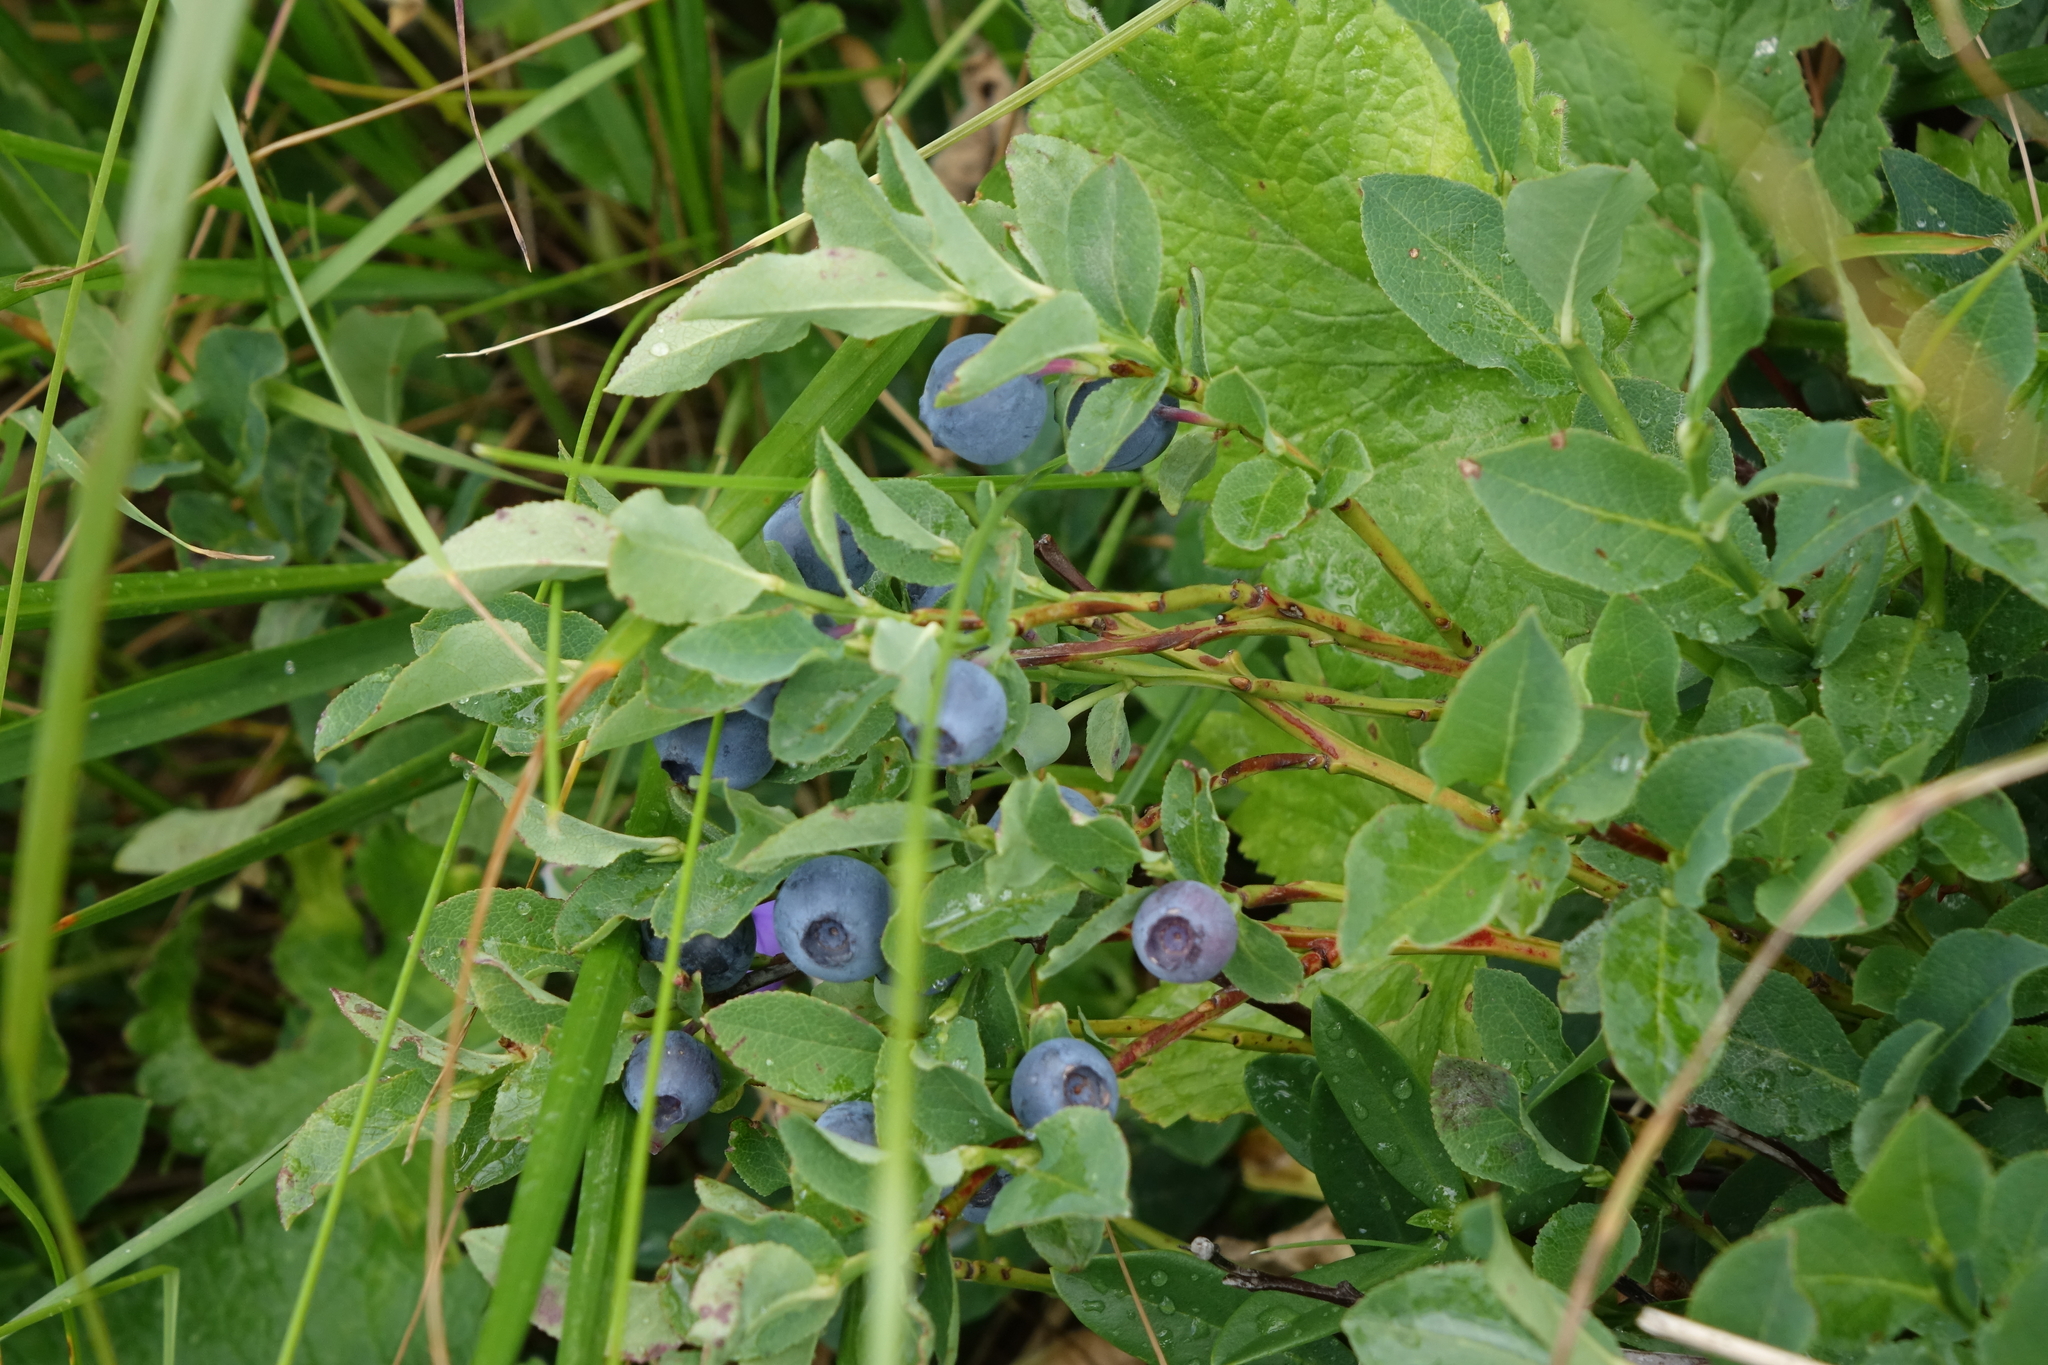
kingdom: Plantae
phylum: Tracheophyta
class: Magnoliopsida
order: Ericales
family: Ericaceae
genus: Vaccinium
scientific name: Vaccinium myrtillus
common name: Bilberry
